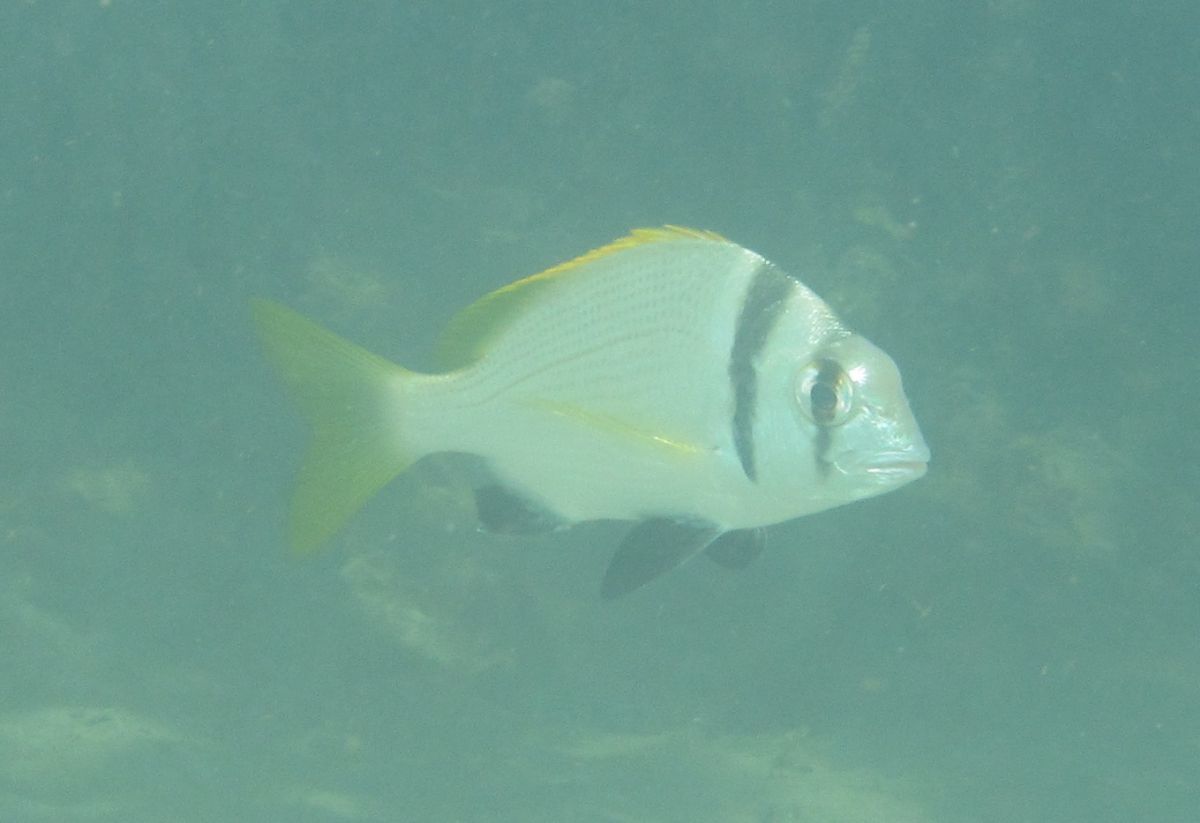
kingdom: Animalia
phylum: Chordata
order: Perciformes
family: Sparidae
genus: Acanthopagrus
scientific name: Acanthopagrus bifasciatus
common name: Twobar seabream
